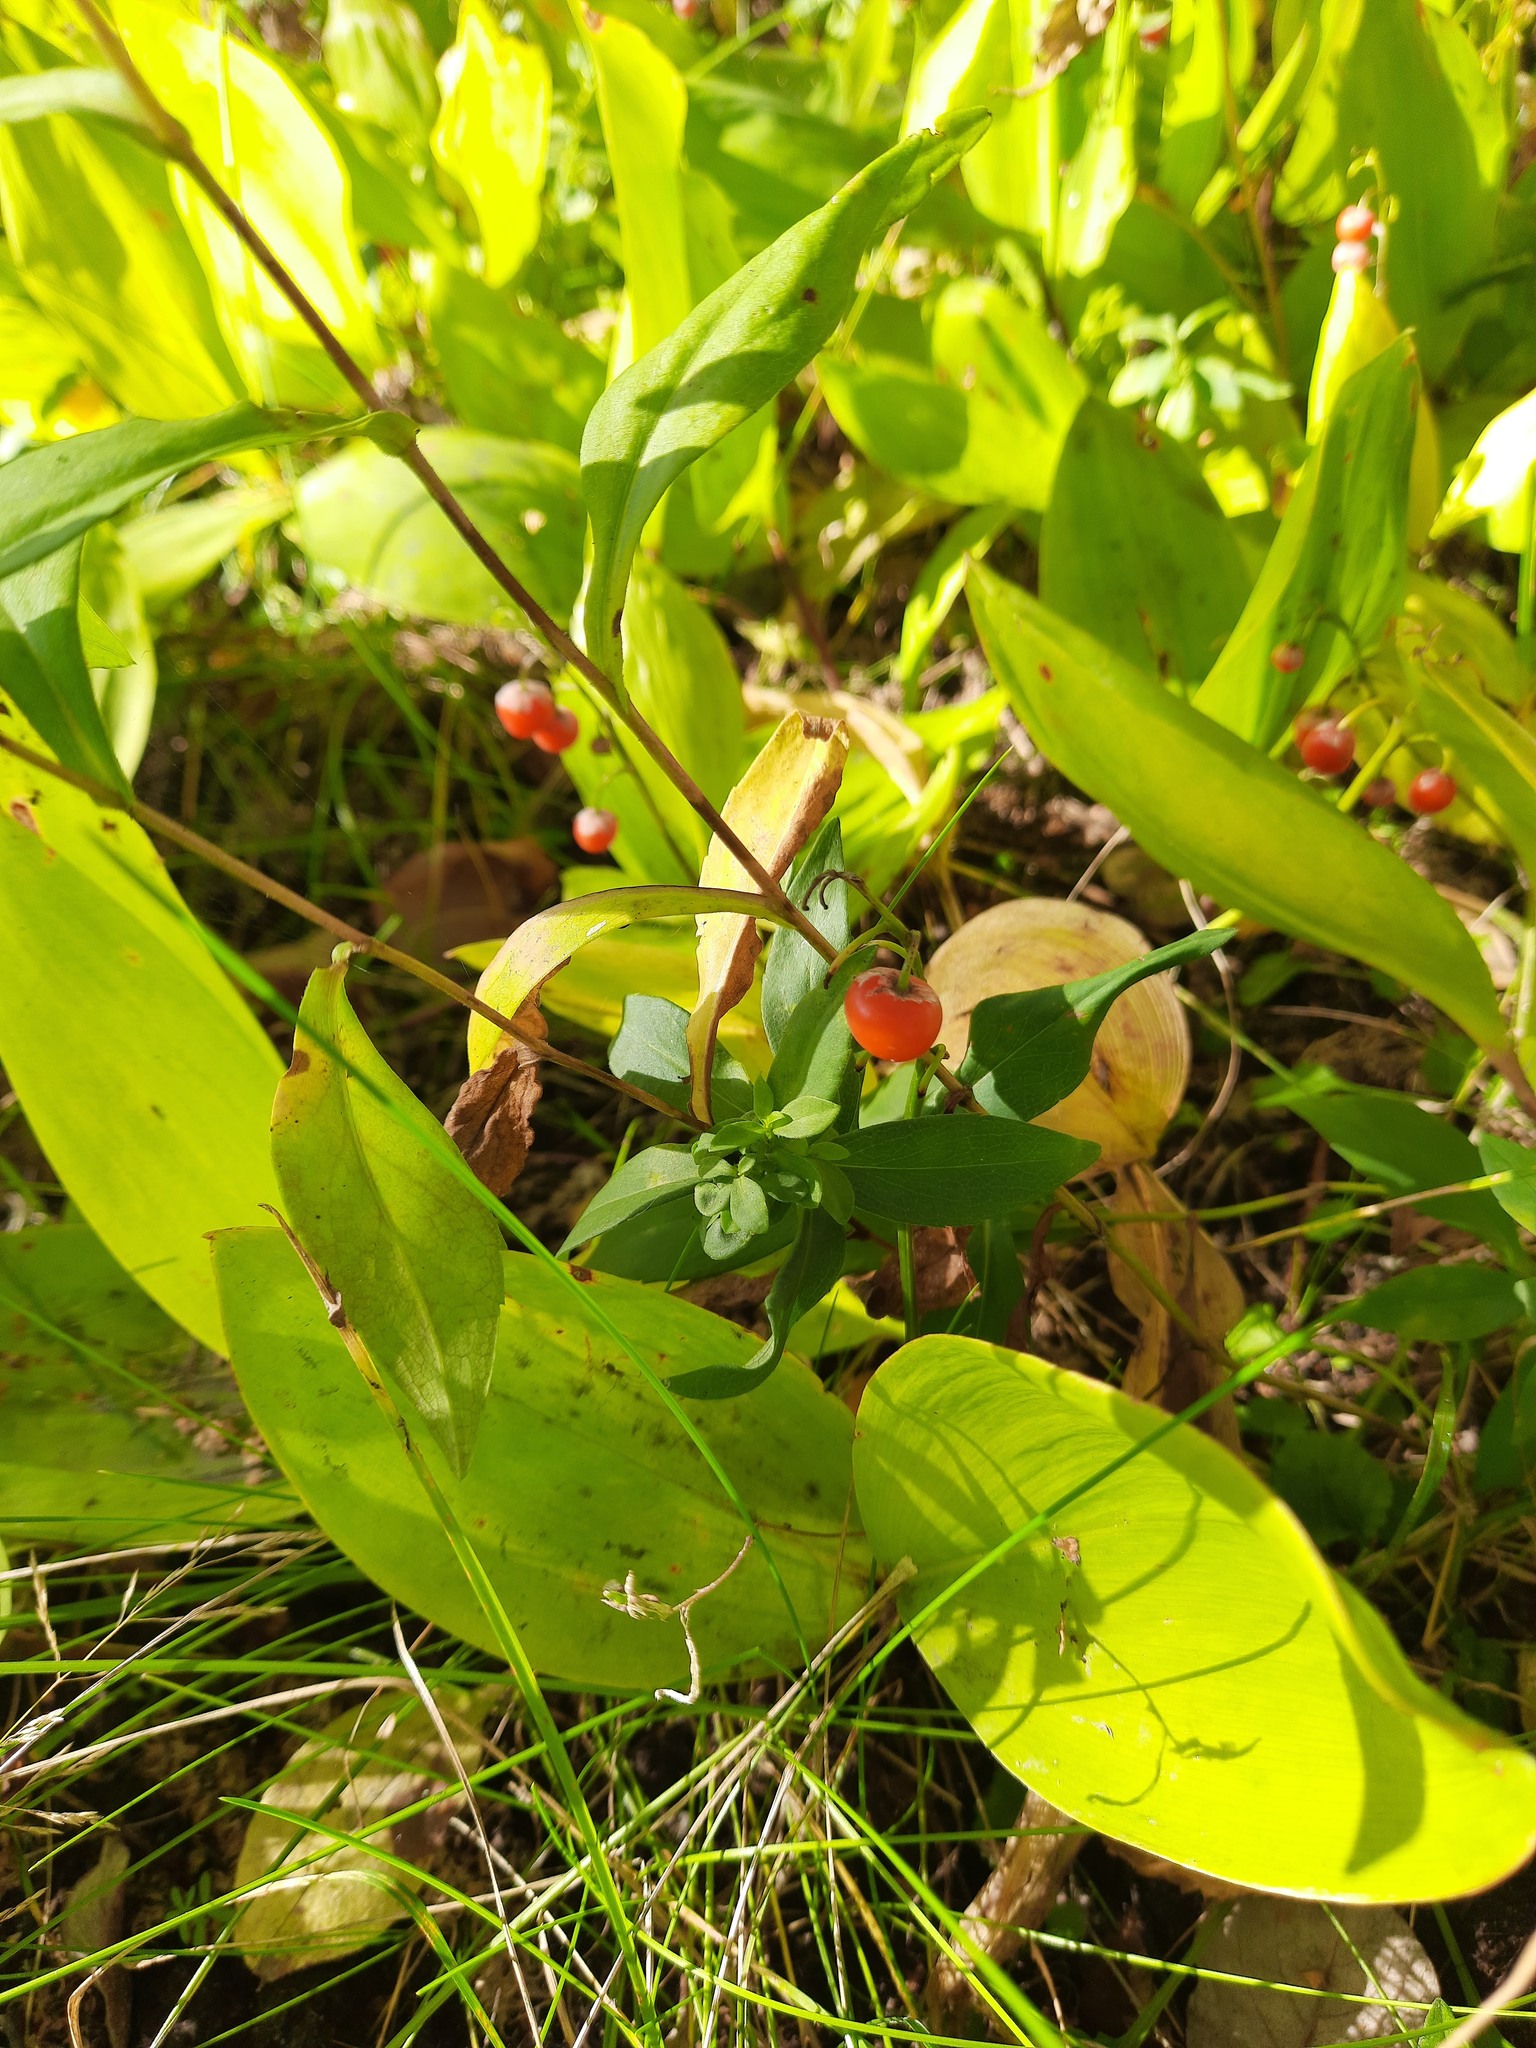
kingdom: Plantae
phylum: Tracheophyta
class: Liliopsida
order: Asparagales
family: Asparagaceae
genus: Convallaria
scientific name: Convallaria majalis
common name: Lily-of-the-valley
